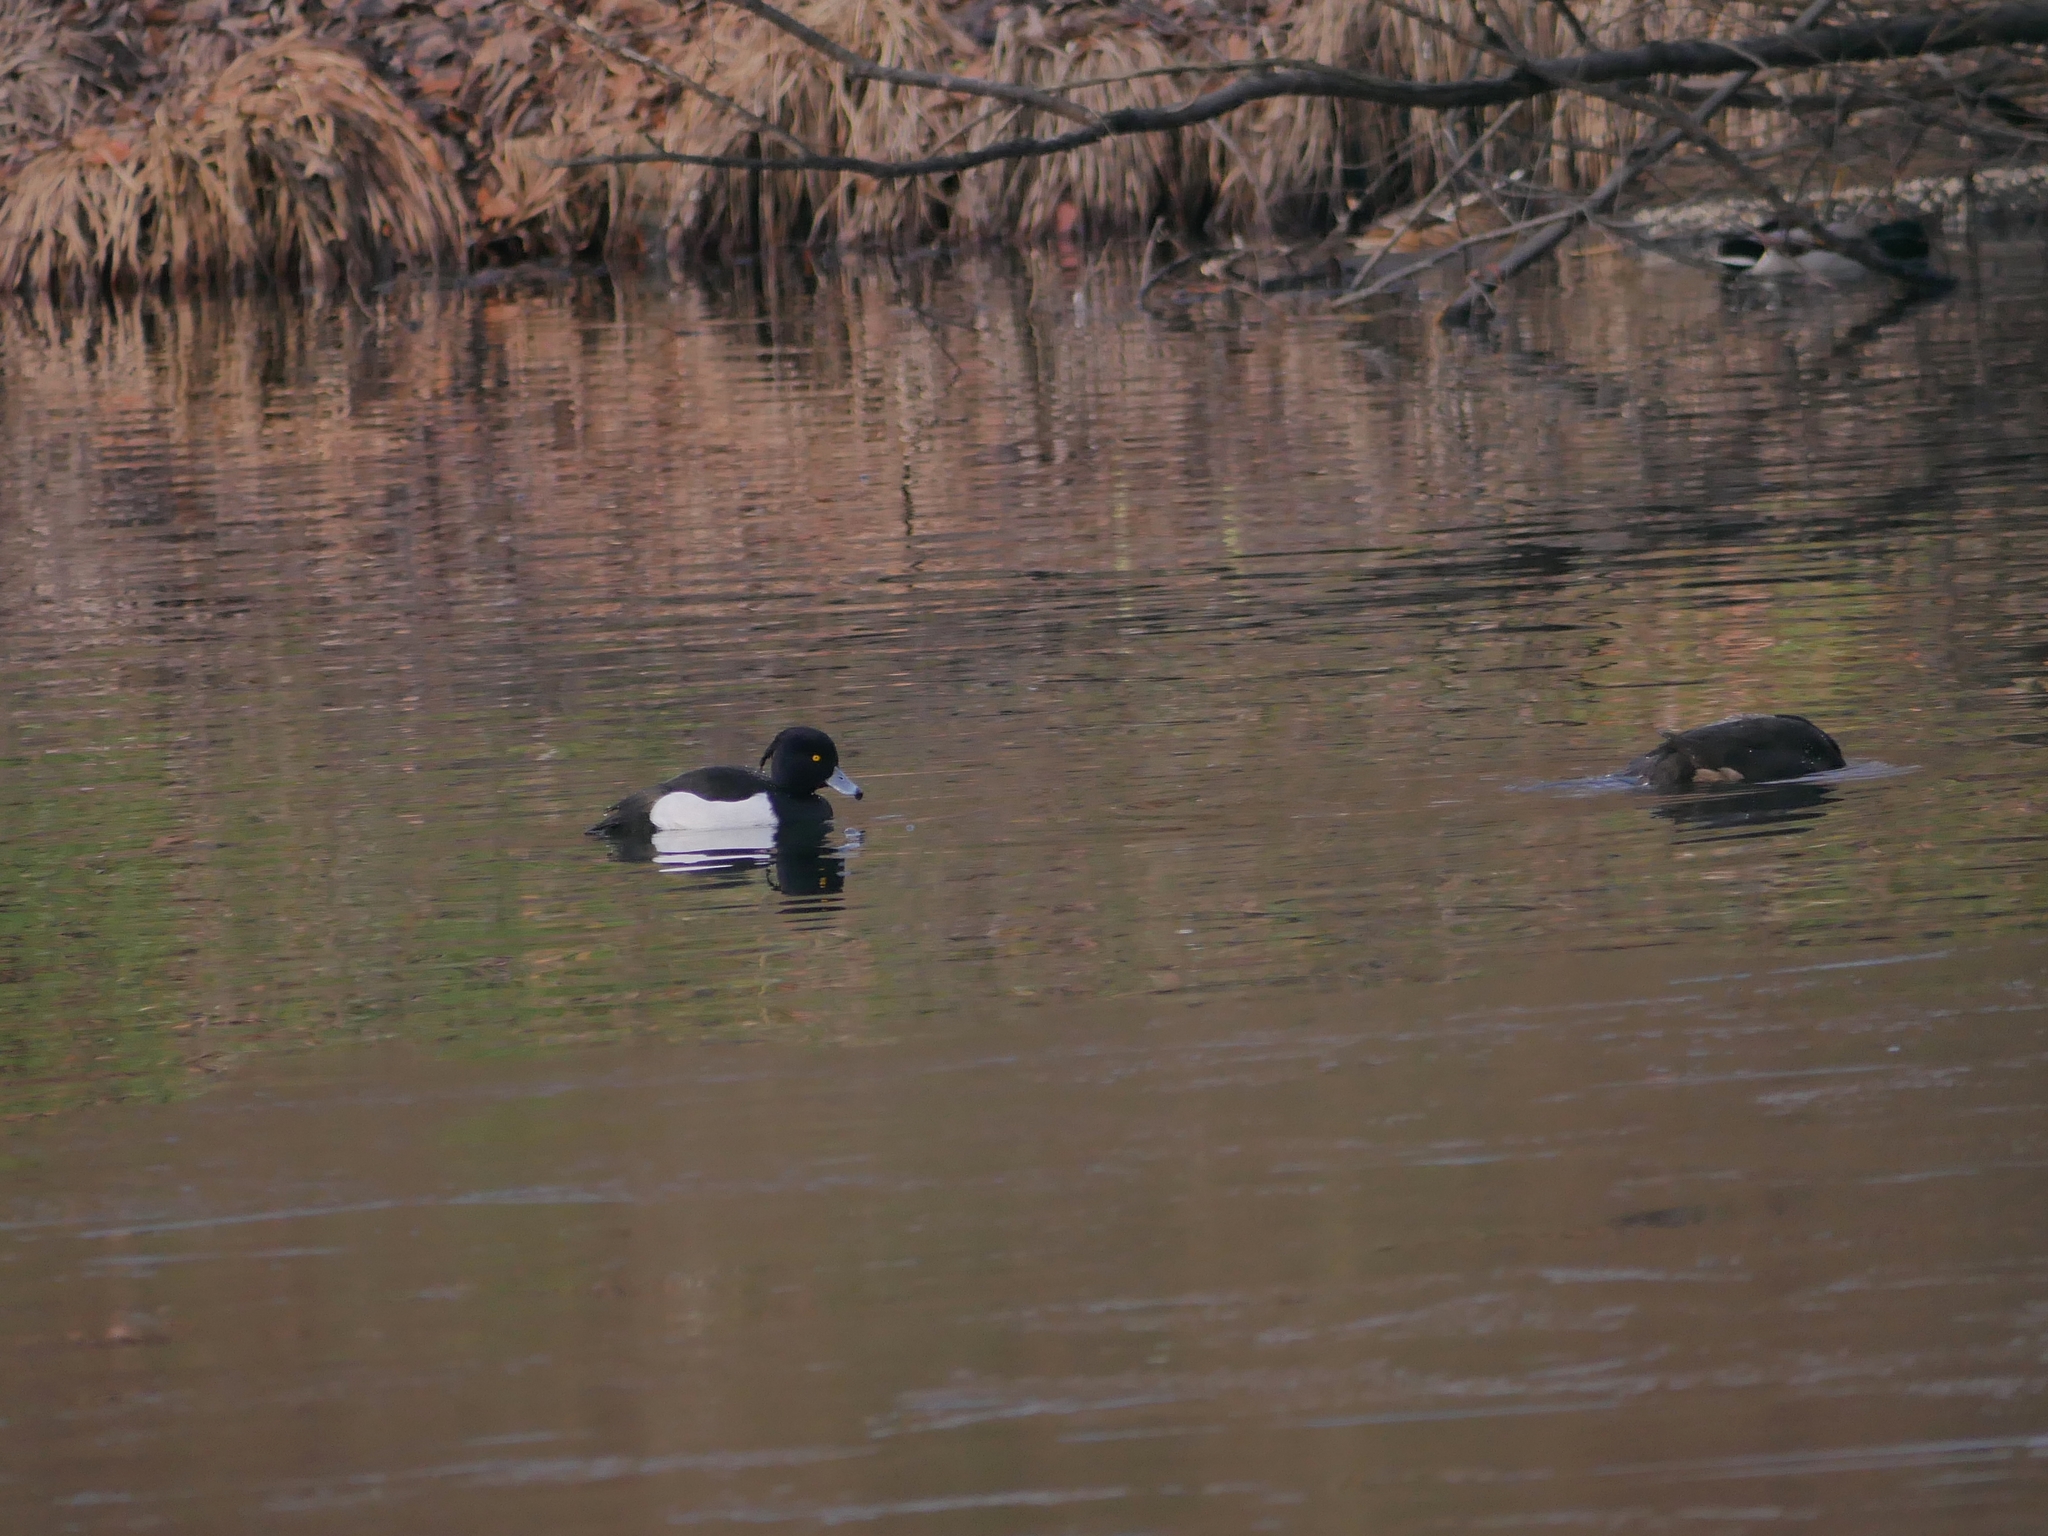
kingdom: Animalia
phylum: Chordata
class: Aves
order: Anseriformes
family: Anatidae
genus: Aythya
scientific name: Aythya fuligula
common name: Tufted duck
